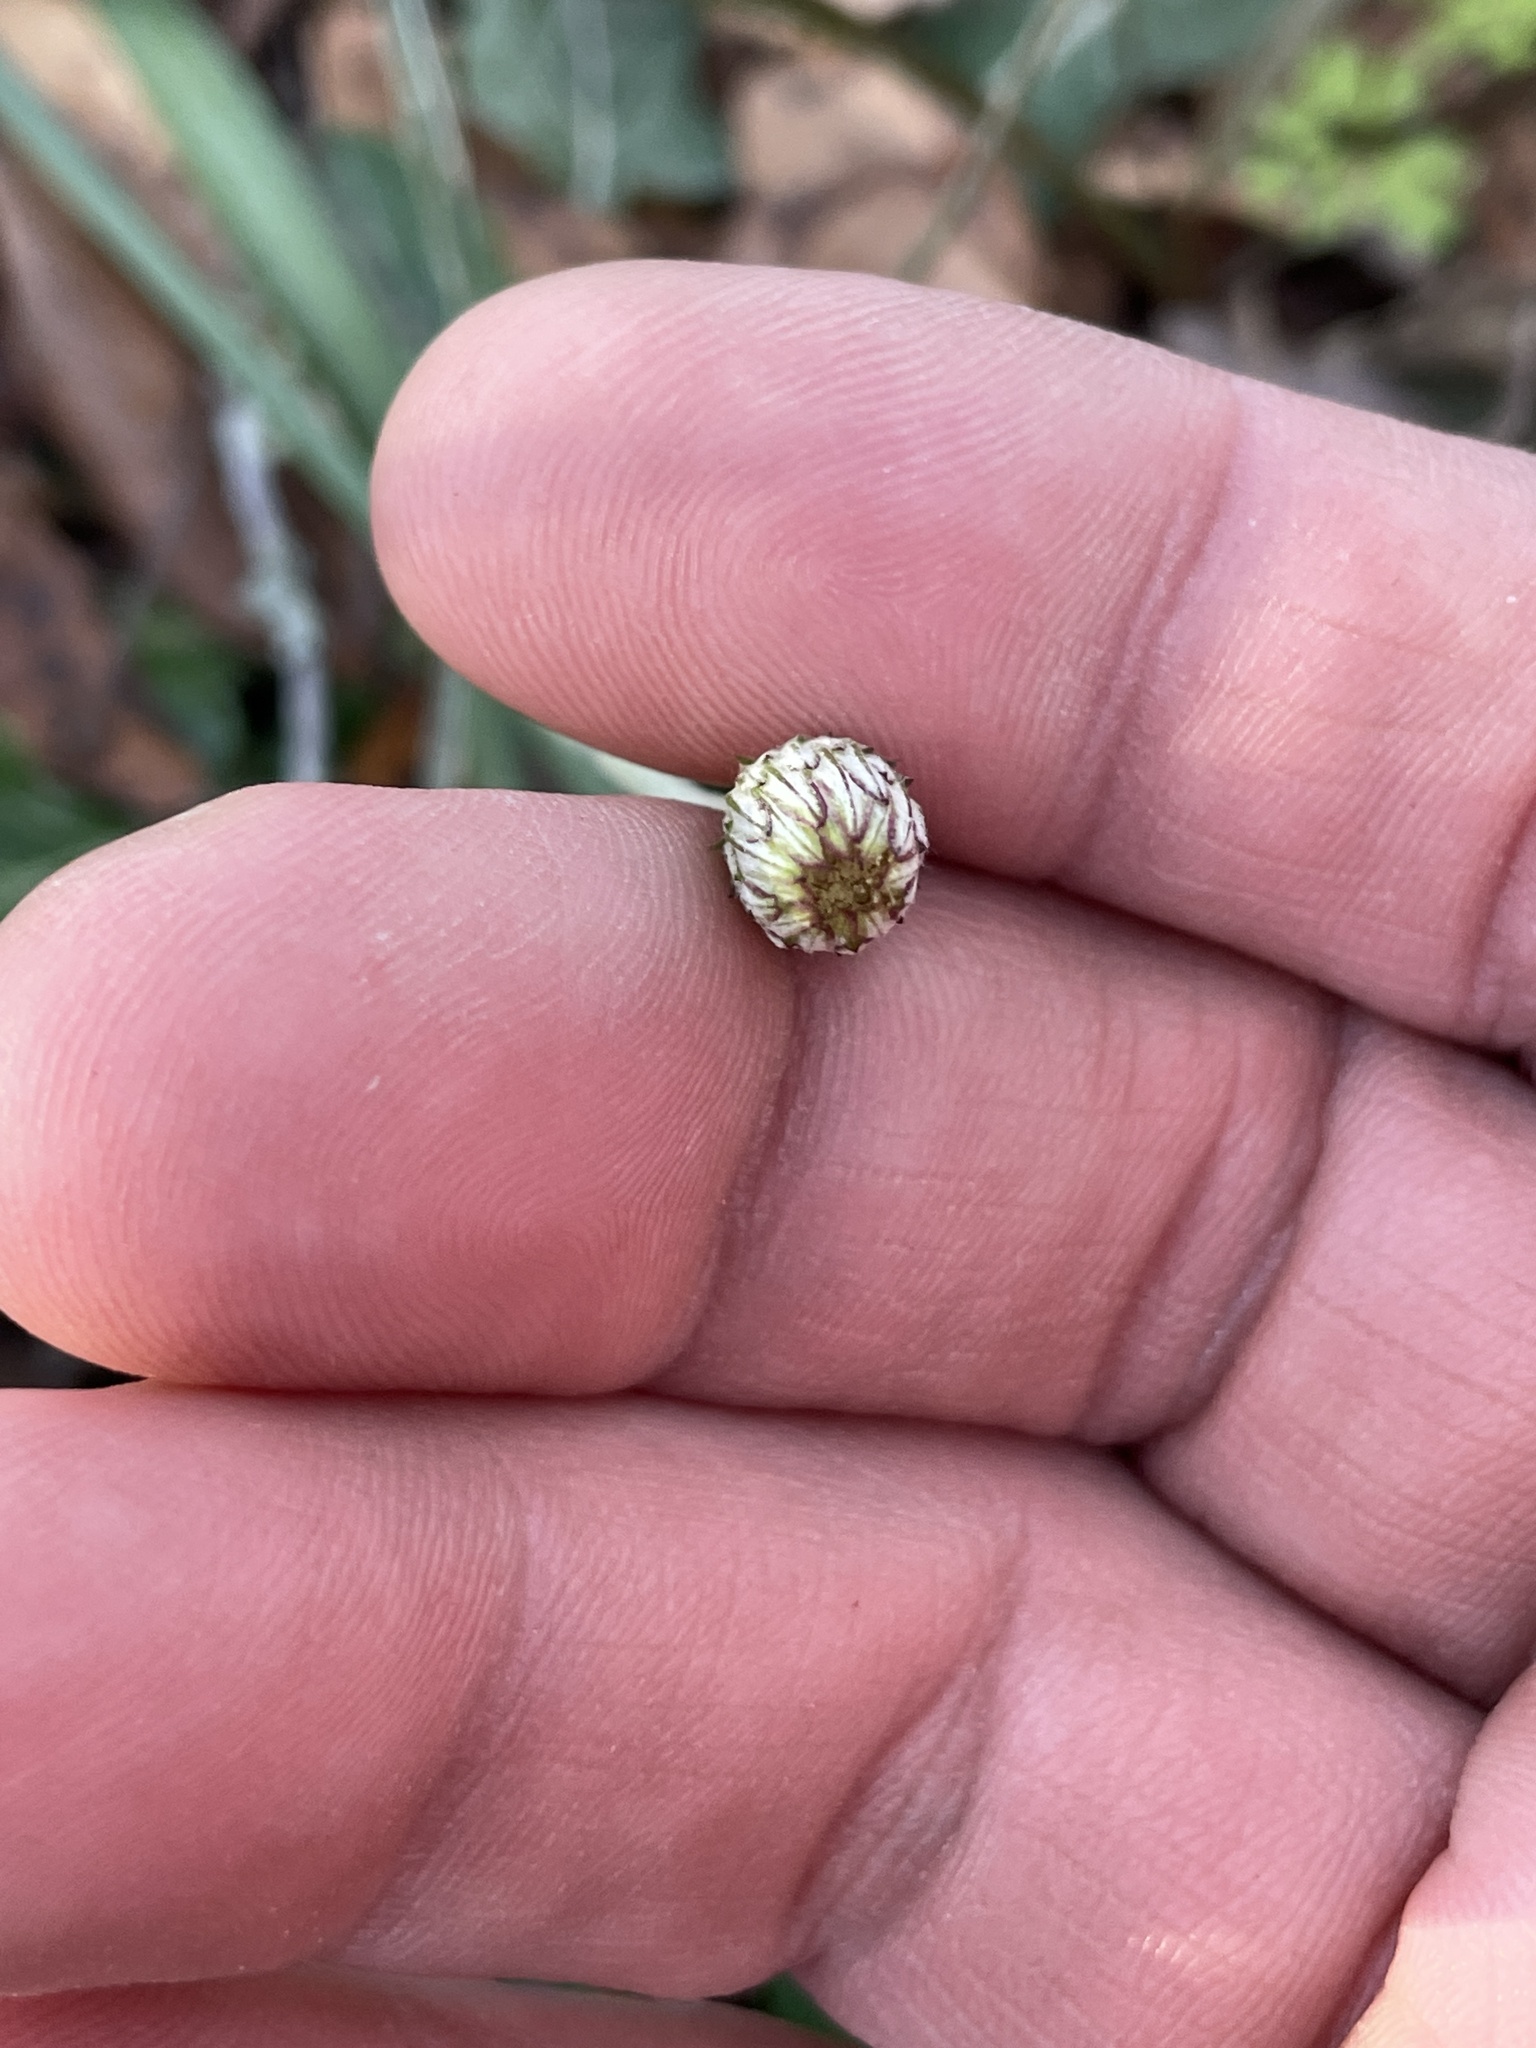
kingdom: Plantae
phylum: Tracheophyta
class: Magnoliopsida
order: Asterales
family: Asteraceae
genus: Chaptalia
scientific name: Chaptalia texana
